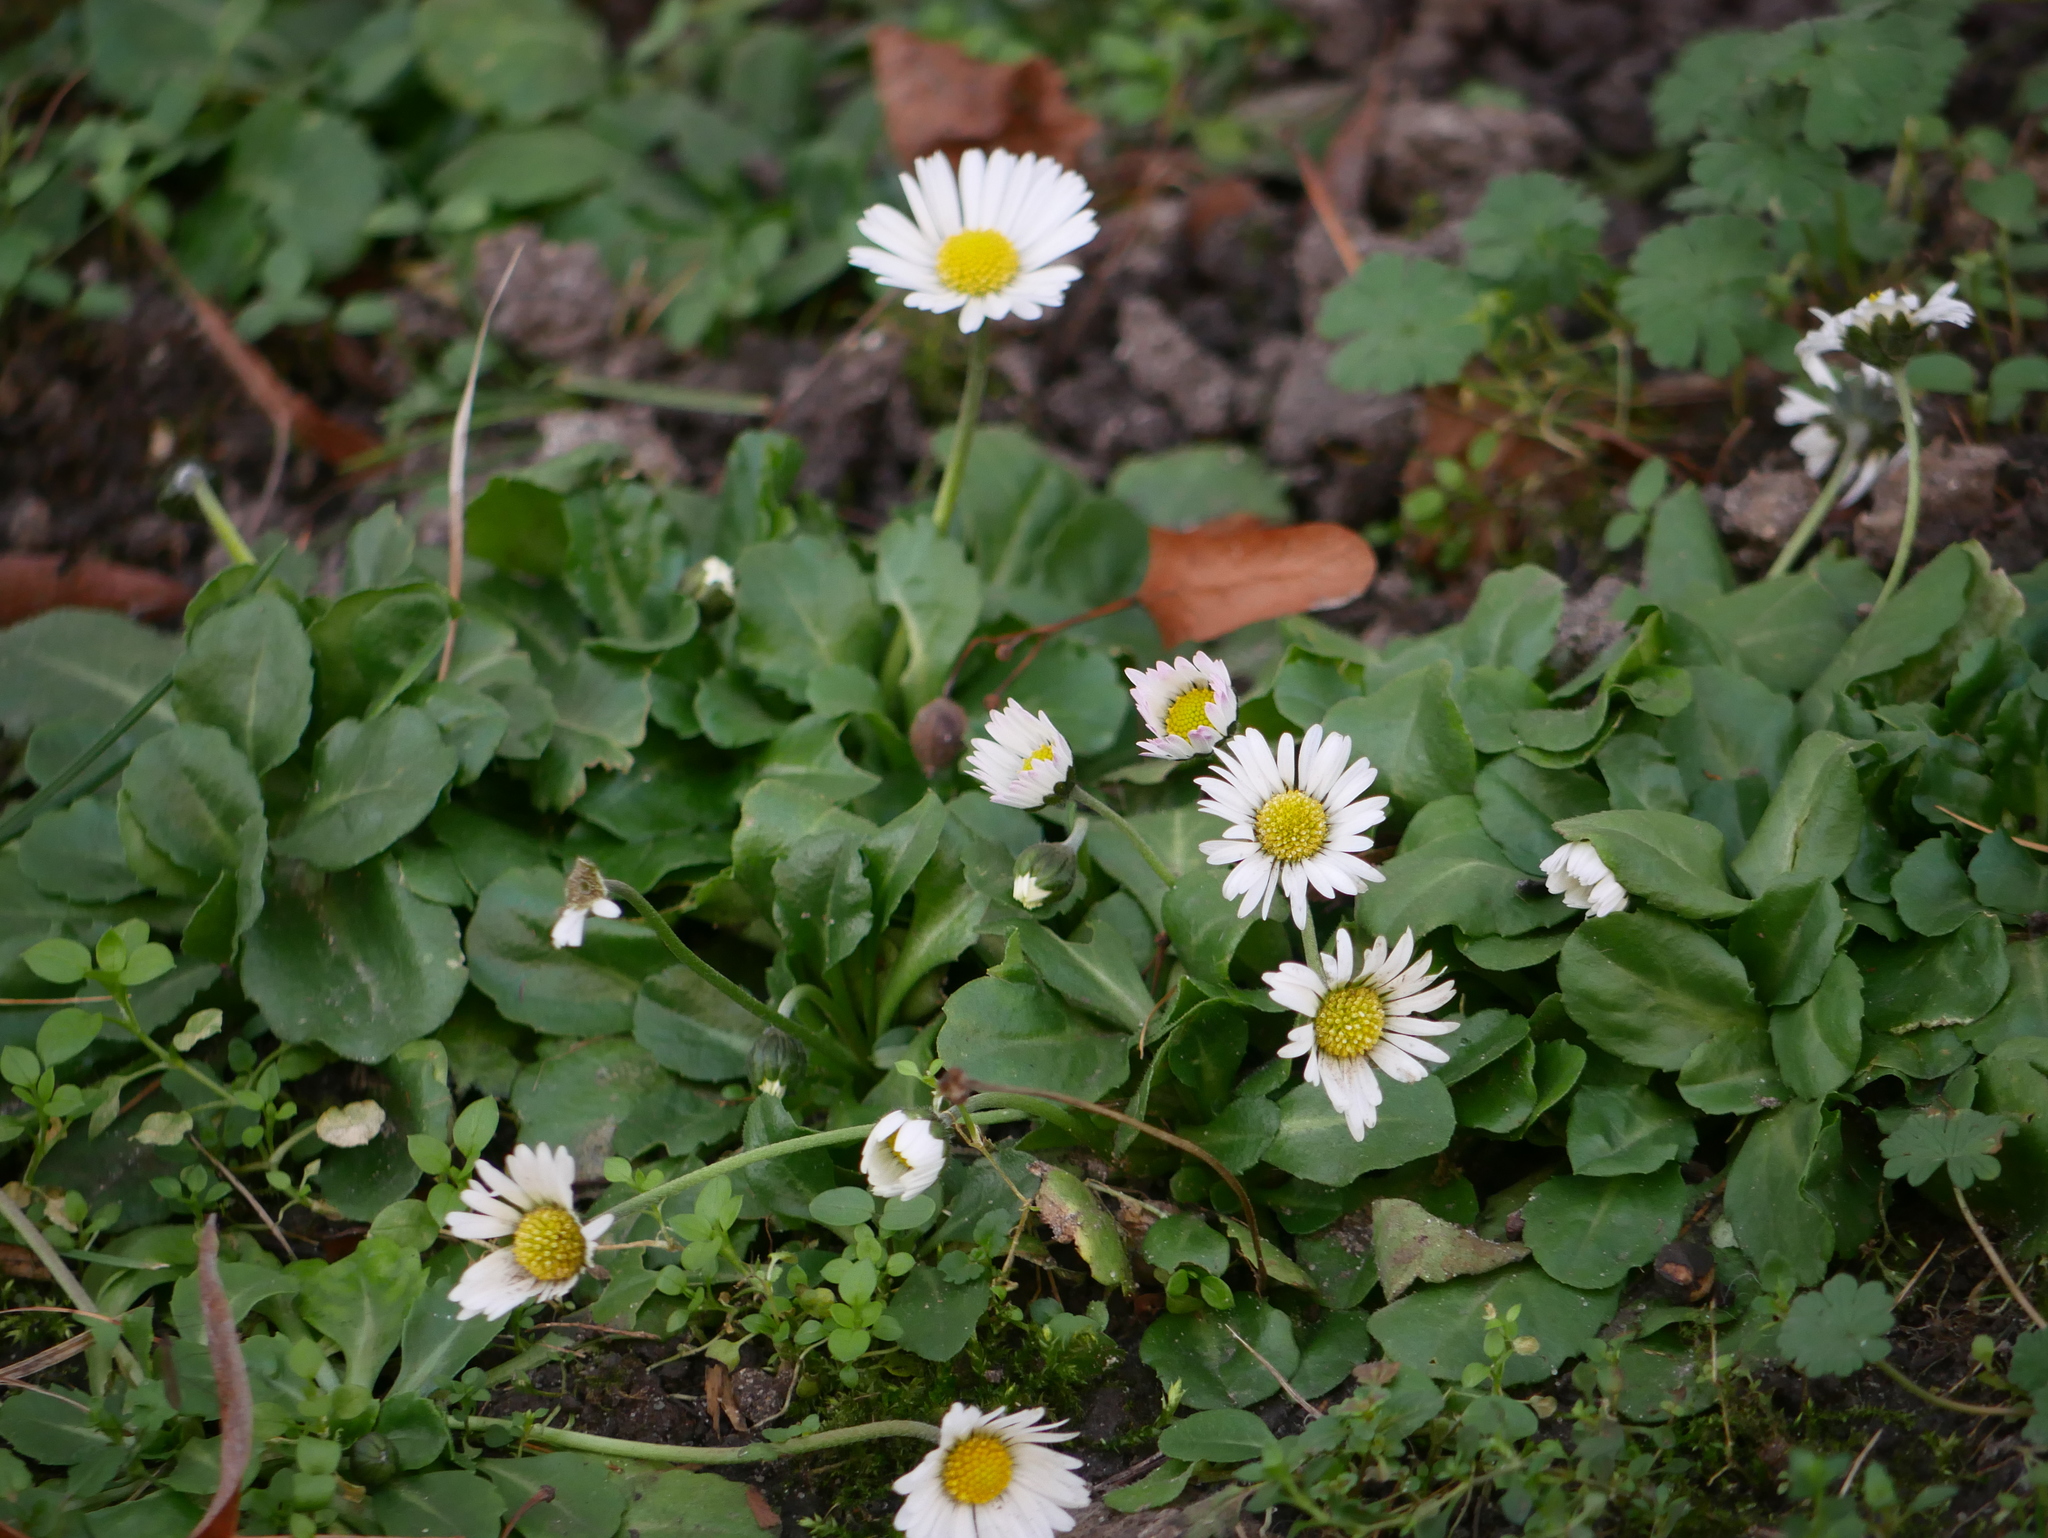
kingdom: Plantae
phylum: Tracheophyta
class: Magnoliopsida
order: Asterales
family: Asteraceae
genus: Bellis
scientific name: Bellis perennis
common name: Lawndaisy
